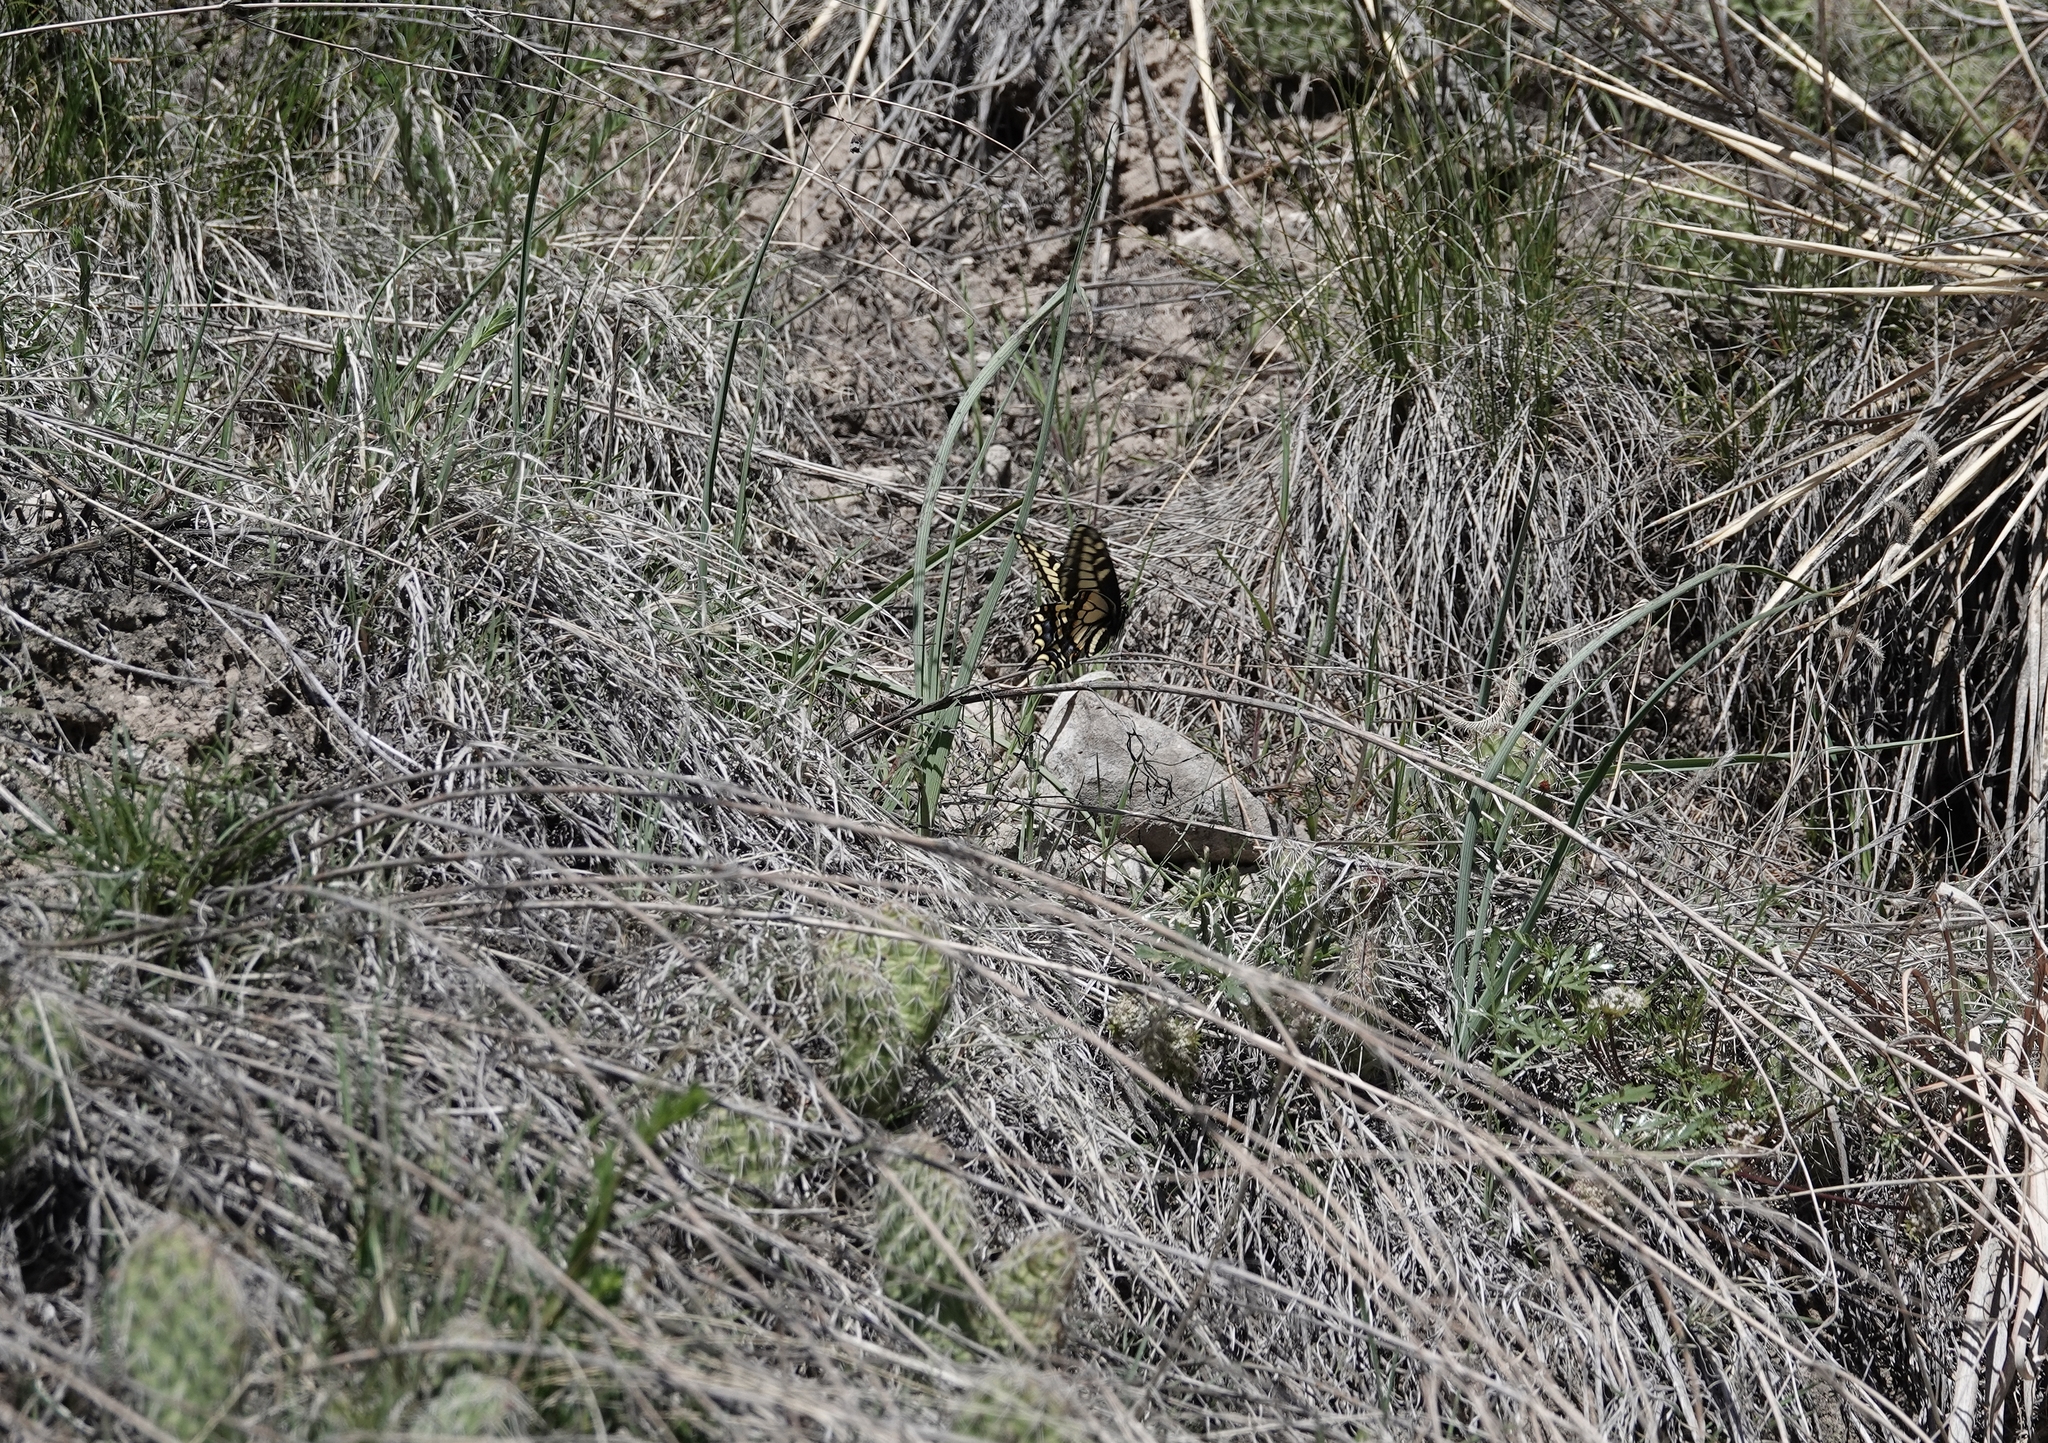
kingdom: Animalia
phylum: Arthropoda
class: Insecta
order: Lepidoptera
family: Papilionidae
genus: Papilio
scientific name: Papilio zelicaon
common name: Anise swallowtail
